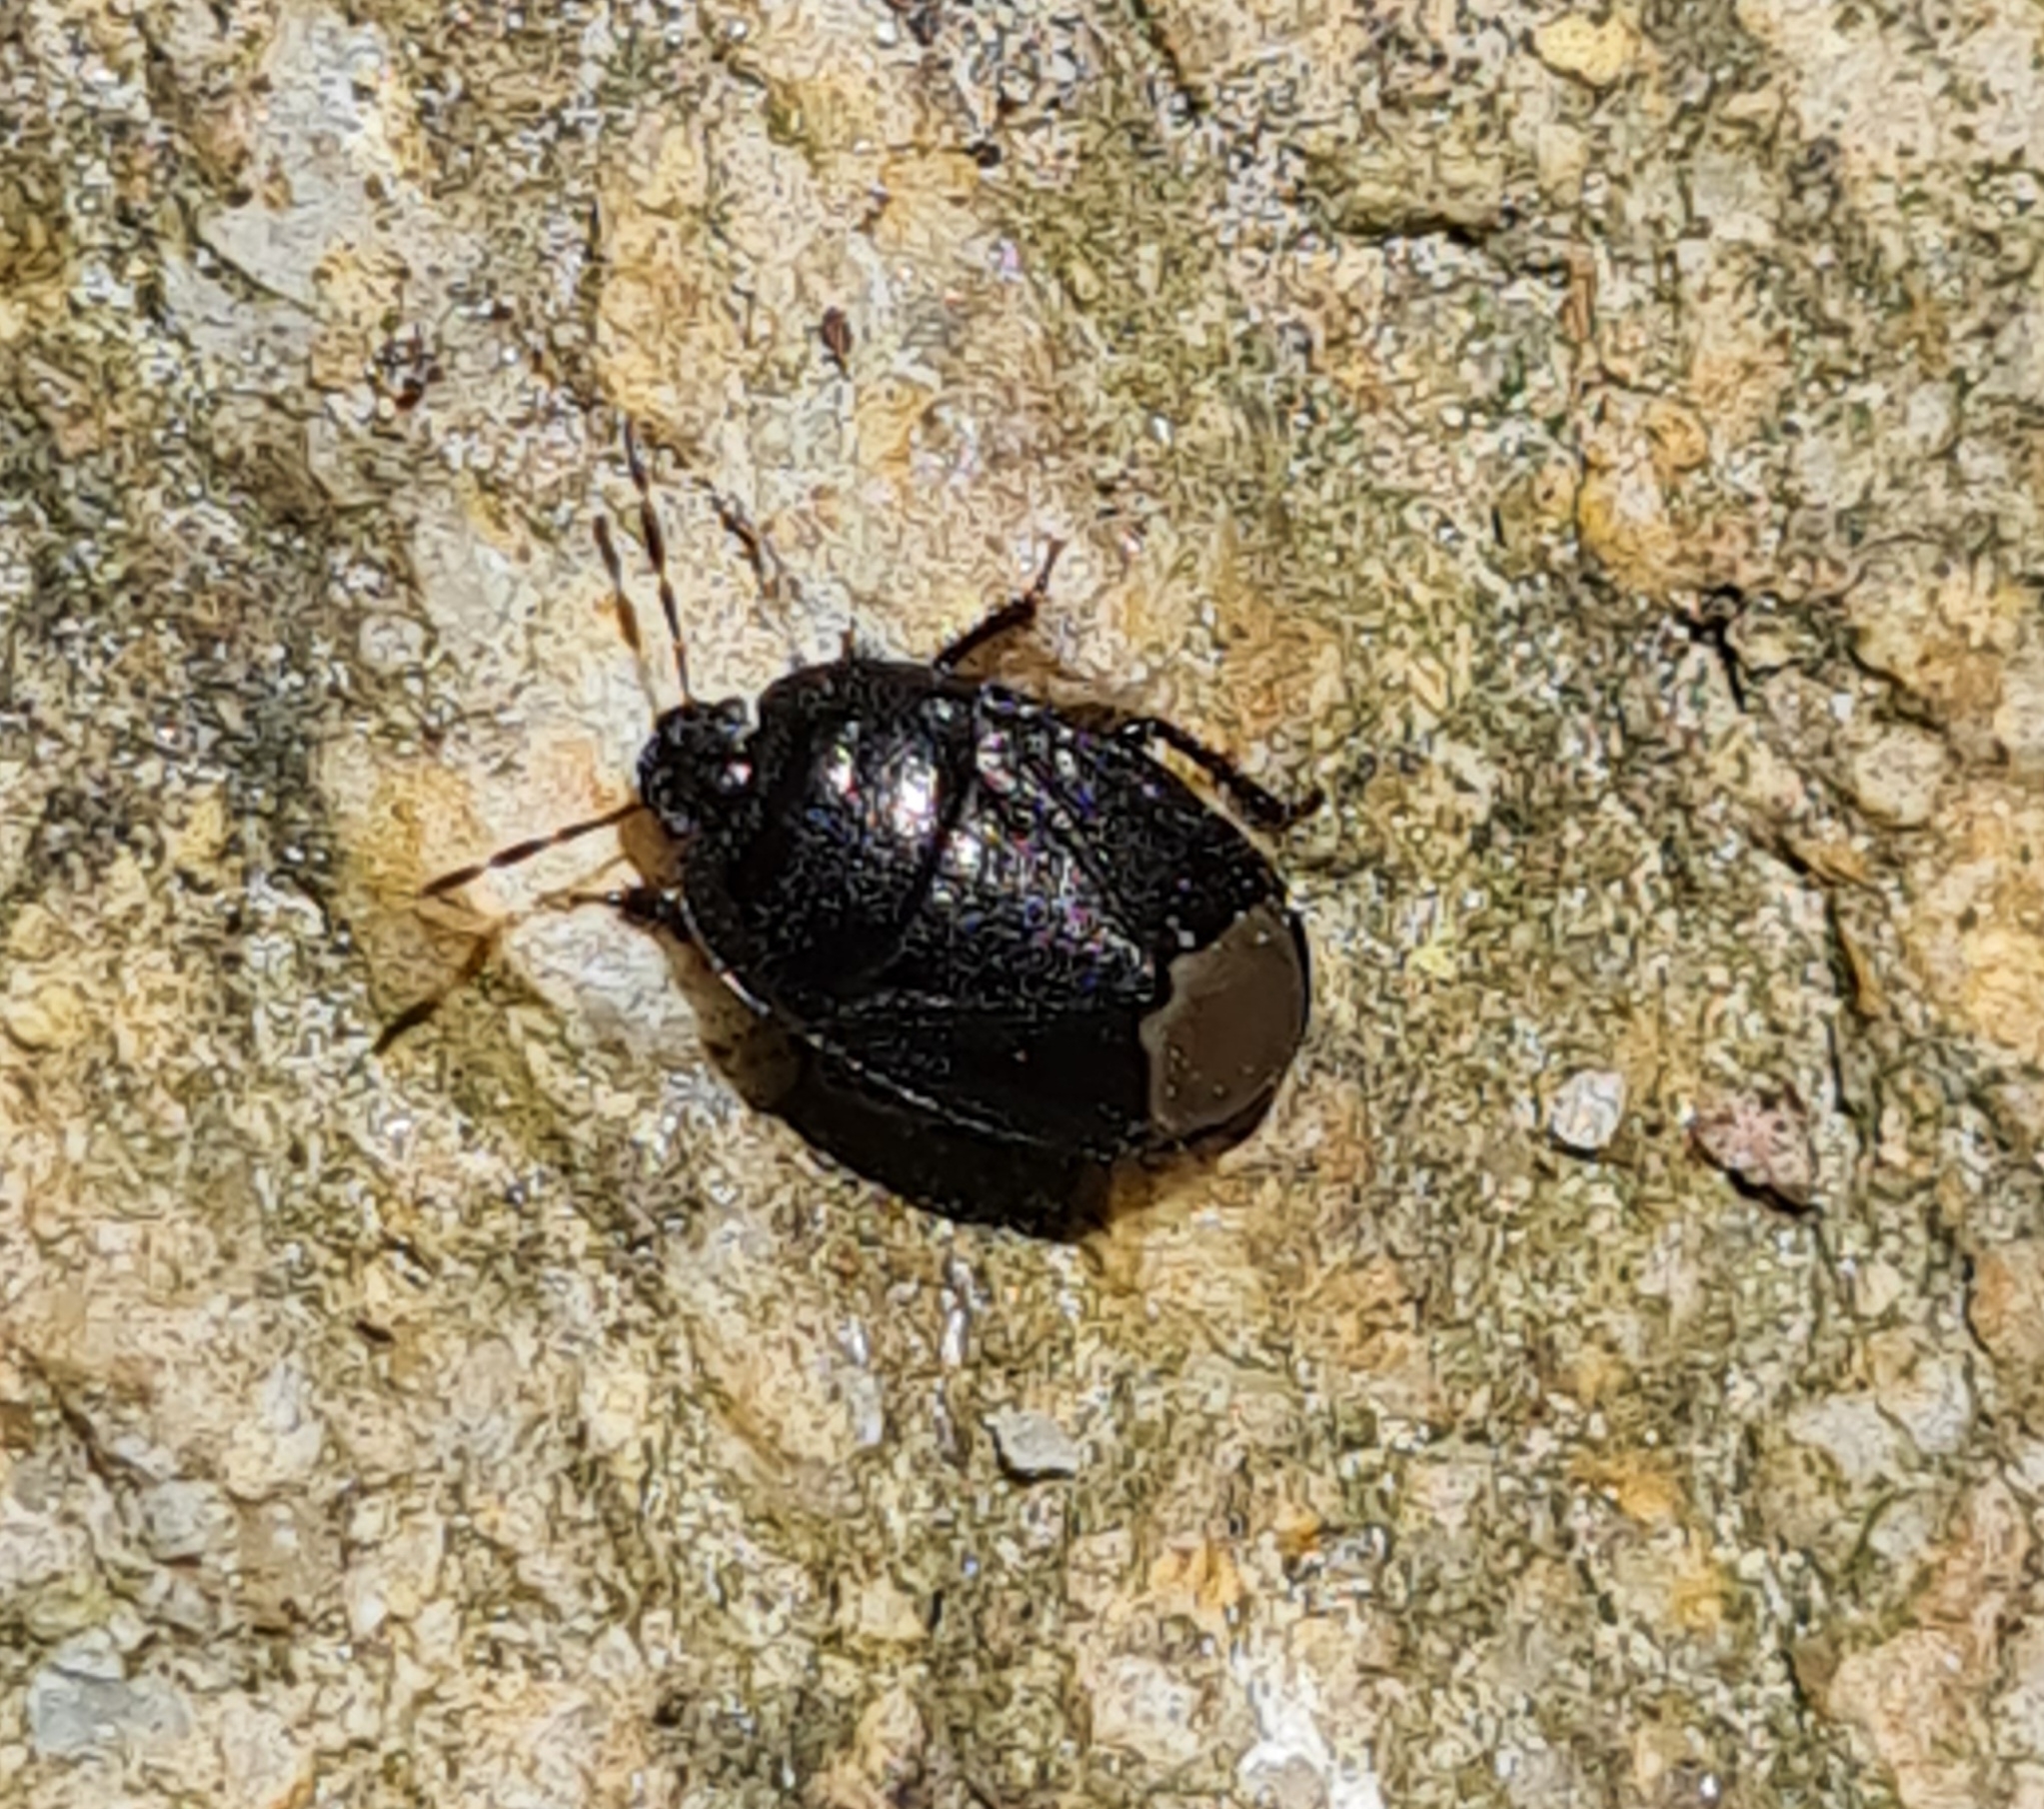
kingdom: Animalia
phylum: Arthropoda
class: Insecta
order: Hemiptera
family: Cydnidae
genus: Sehirus
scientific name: Sehirus luctuosus
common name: Forget-me-not shieldbug
